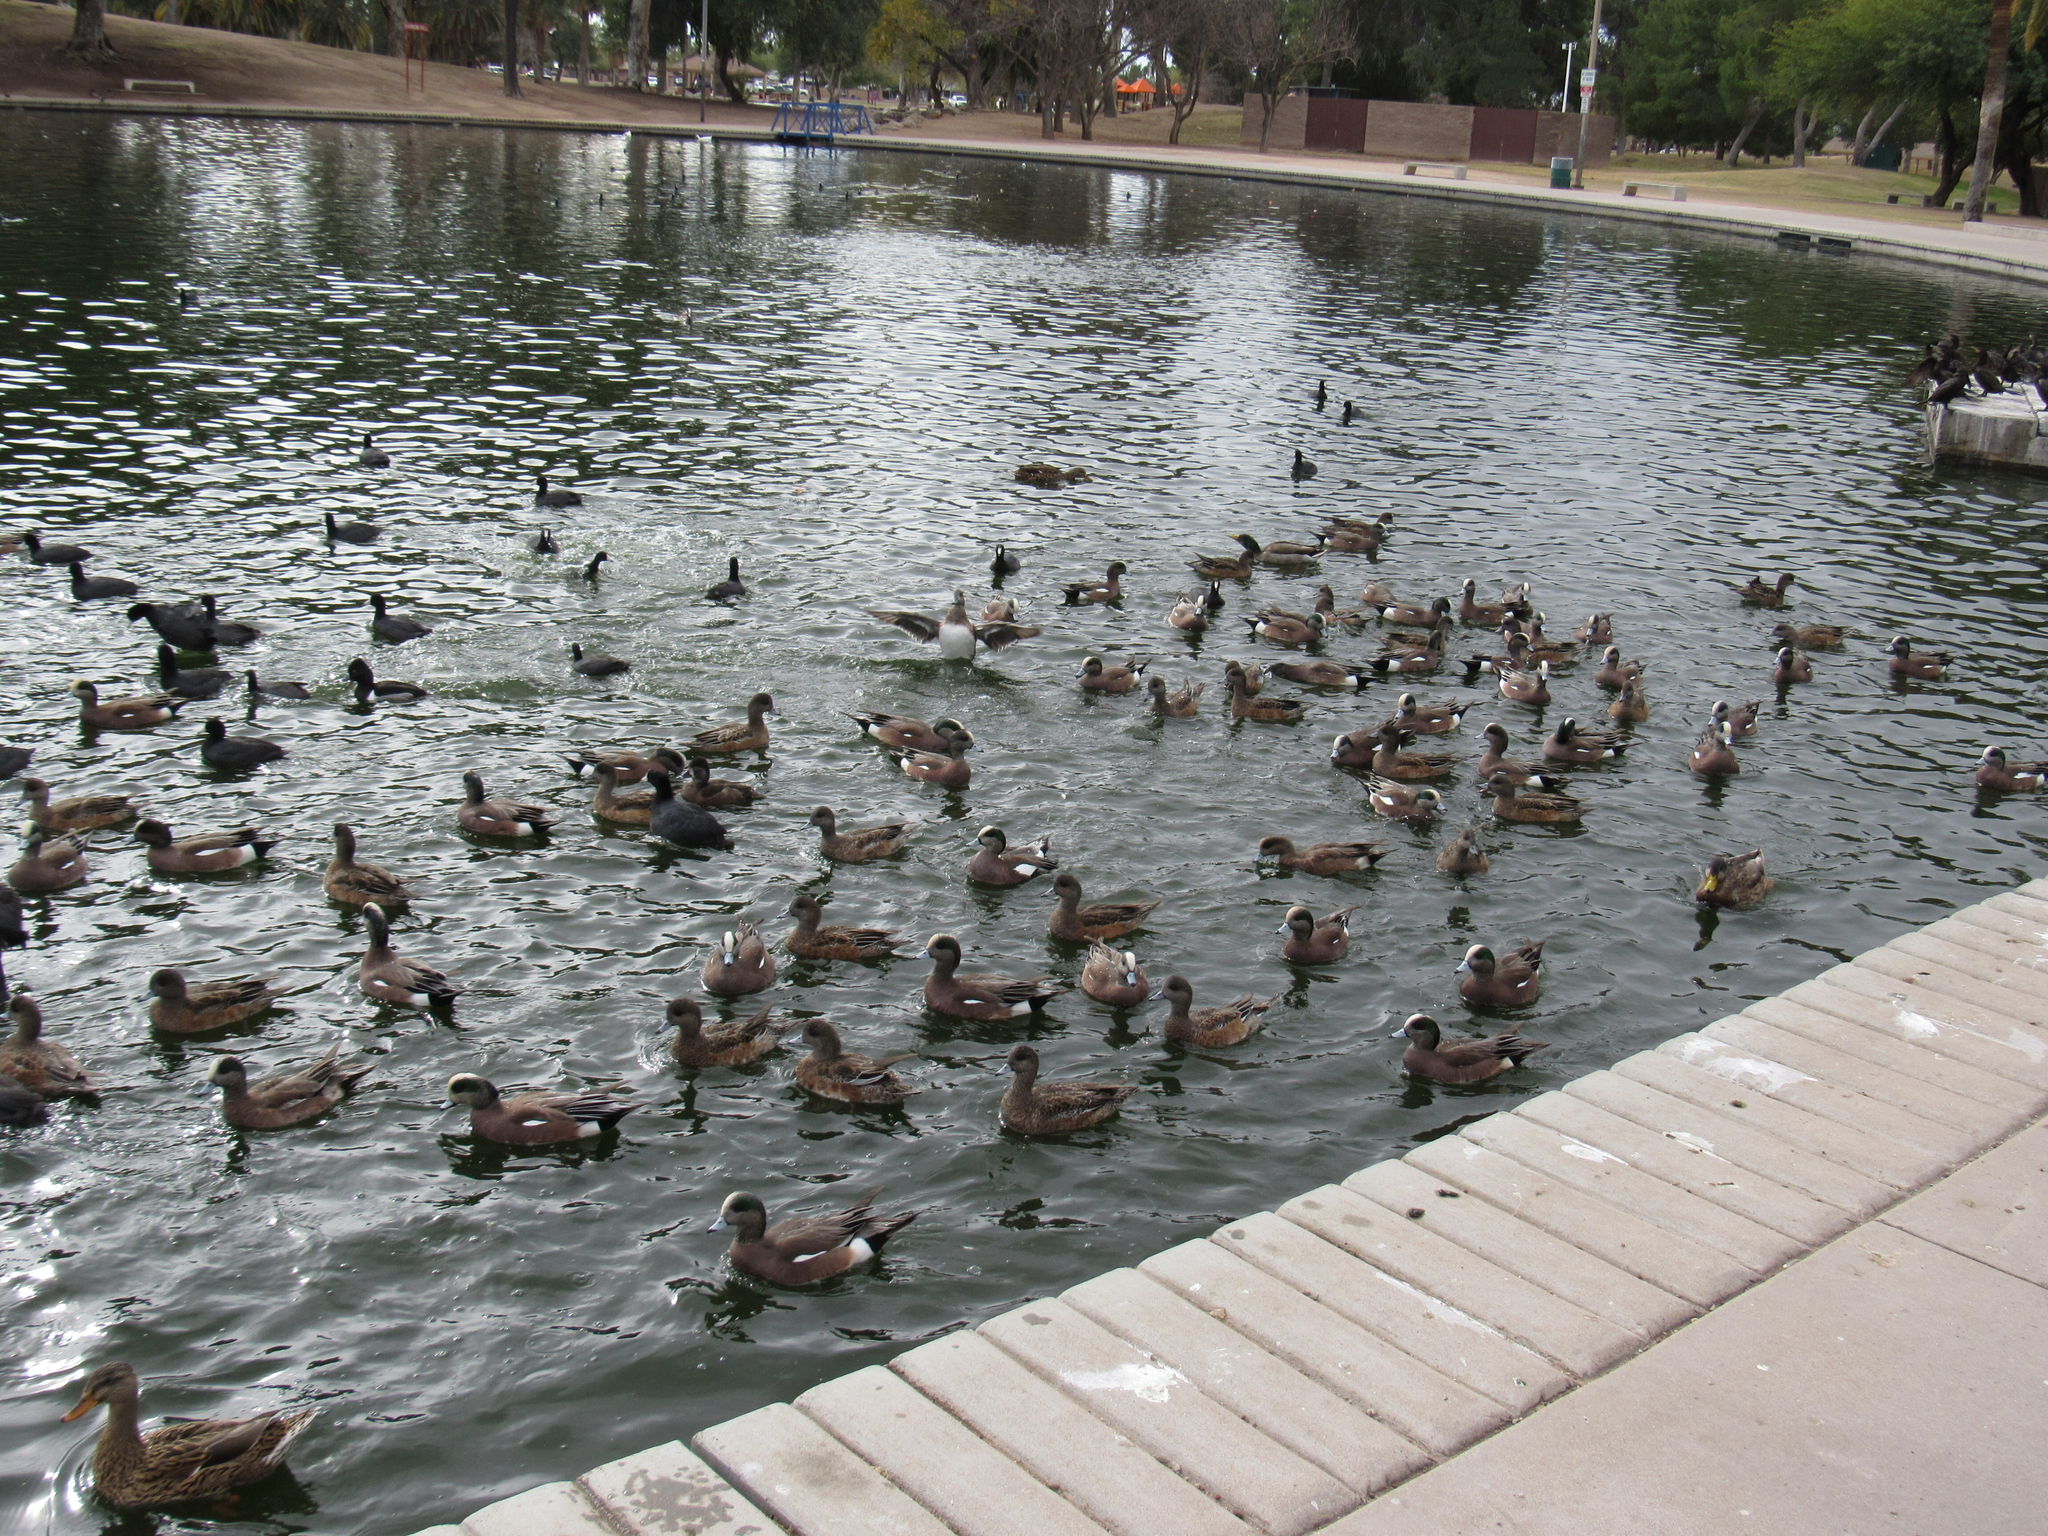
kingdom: Animalia
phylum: Chordata
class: Aves
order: Anseriformes
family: Anatidae
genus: Mareca
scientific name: Mareca americana
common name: American wigeon
